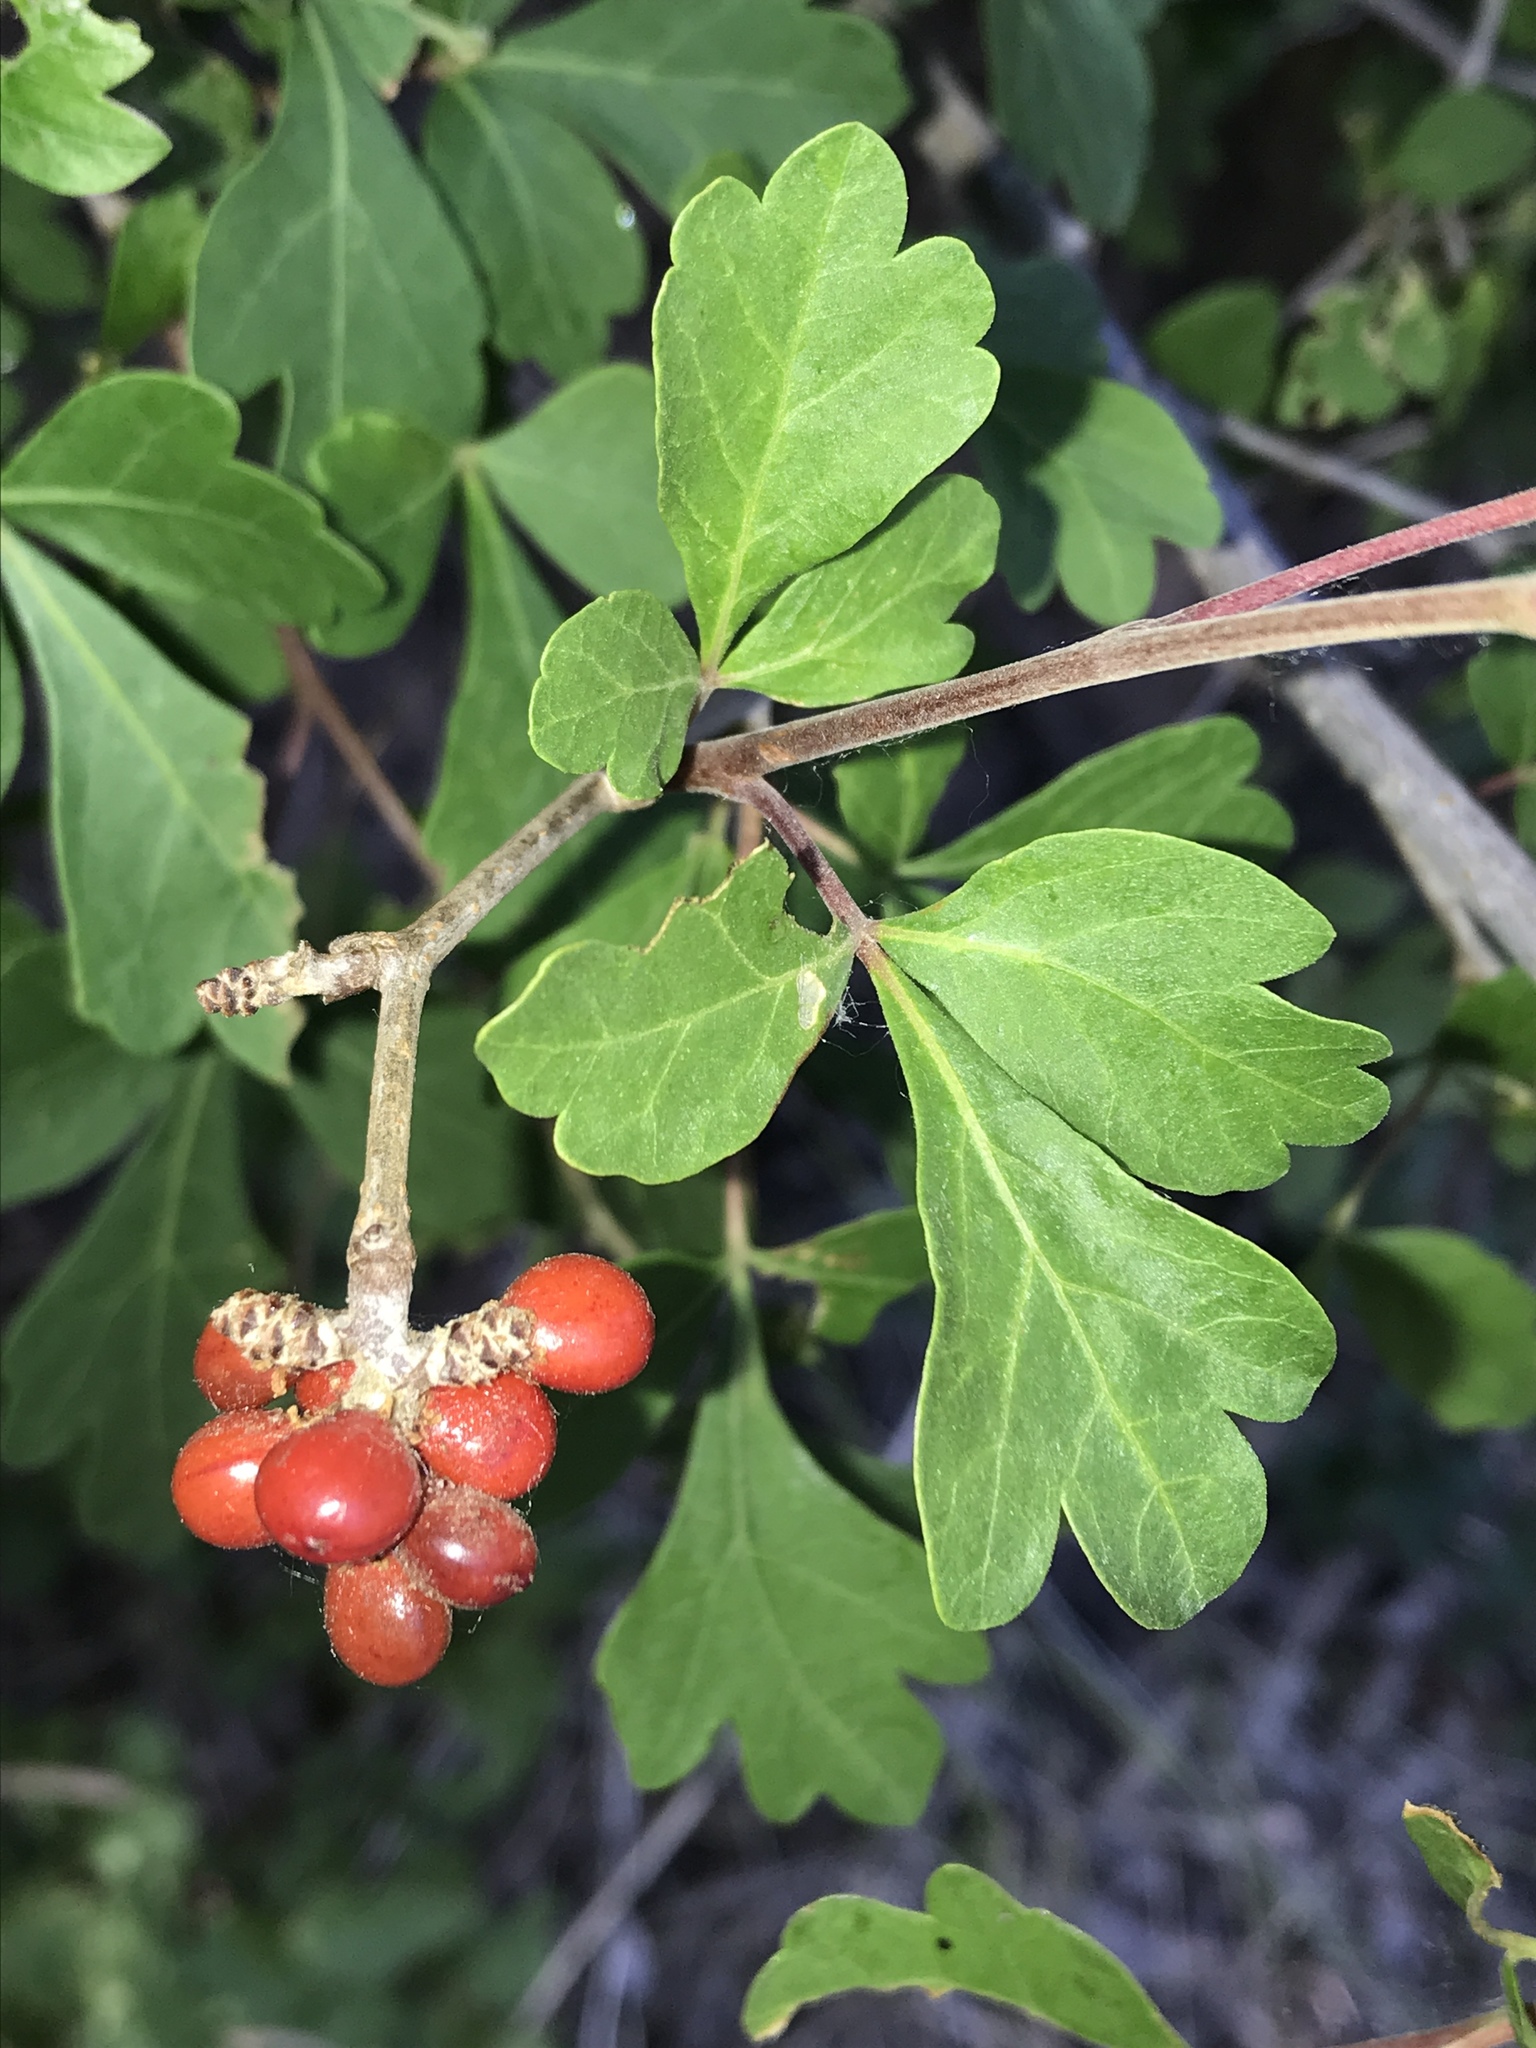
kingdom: Plantae
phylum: Tracheophyta
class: Magnoliopsida
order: Sapindales
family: Anacardiaceae
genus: Rhus
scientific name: Rhus aromatica
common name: Aromatic sumac
